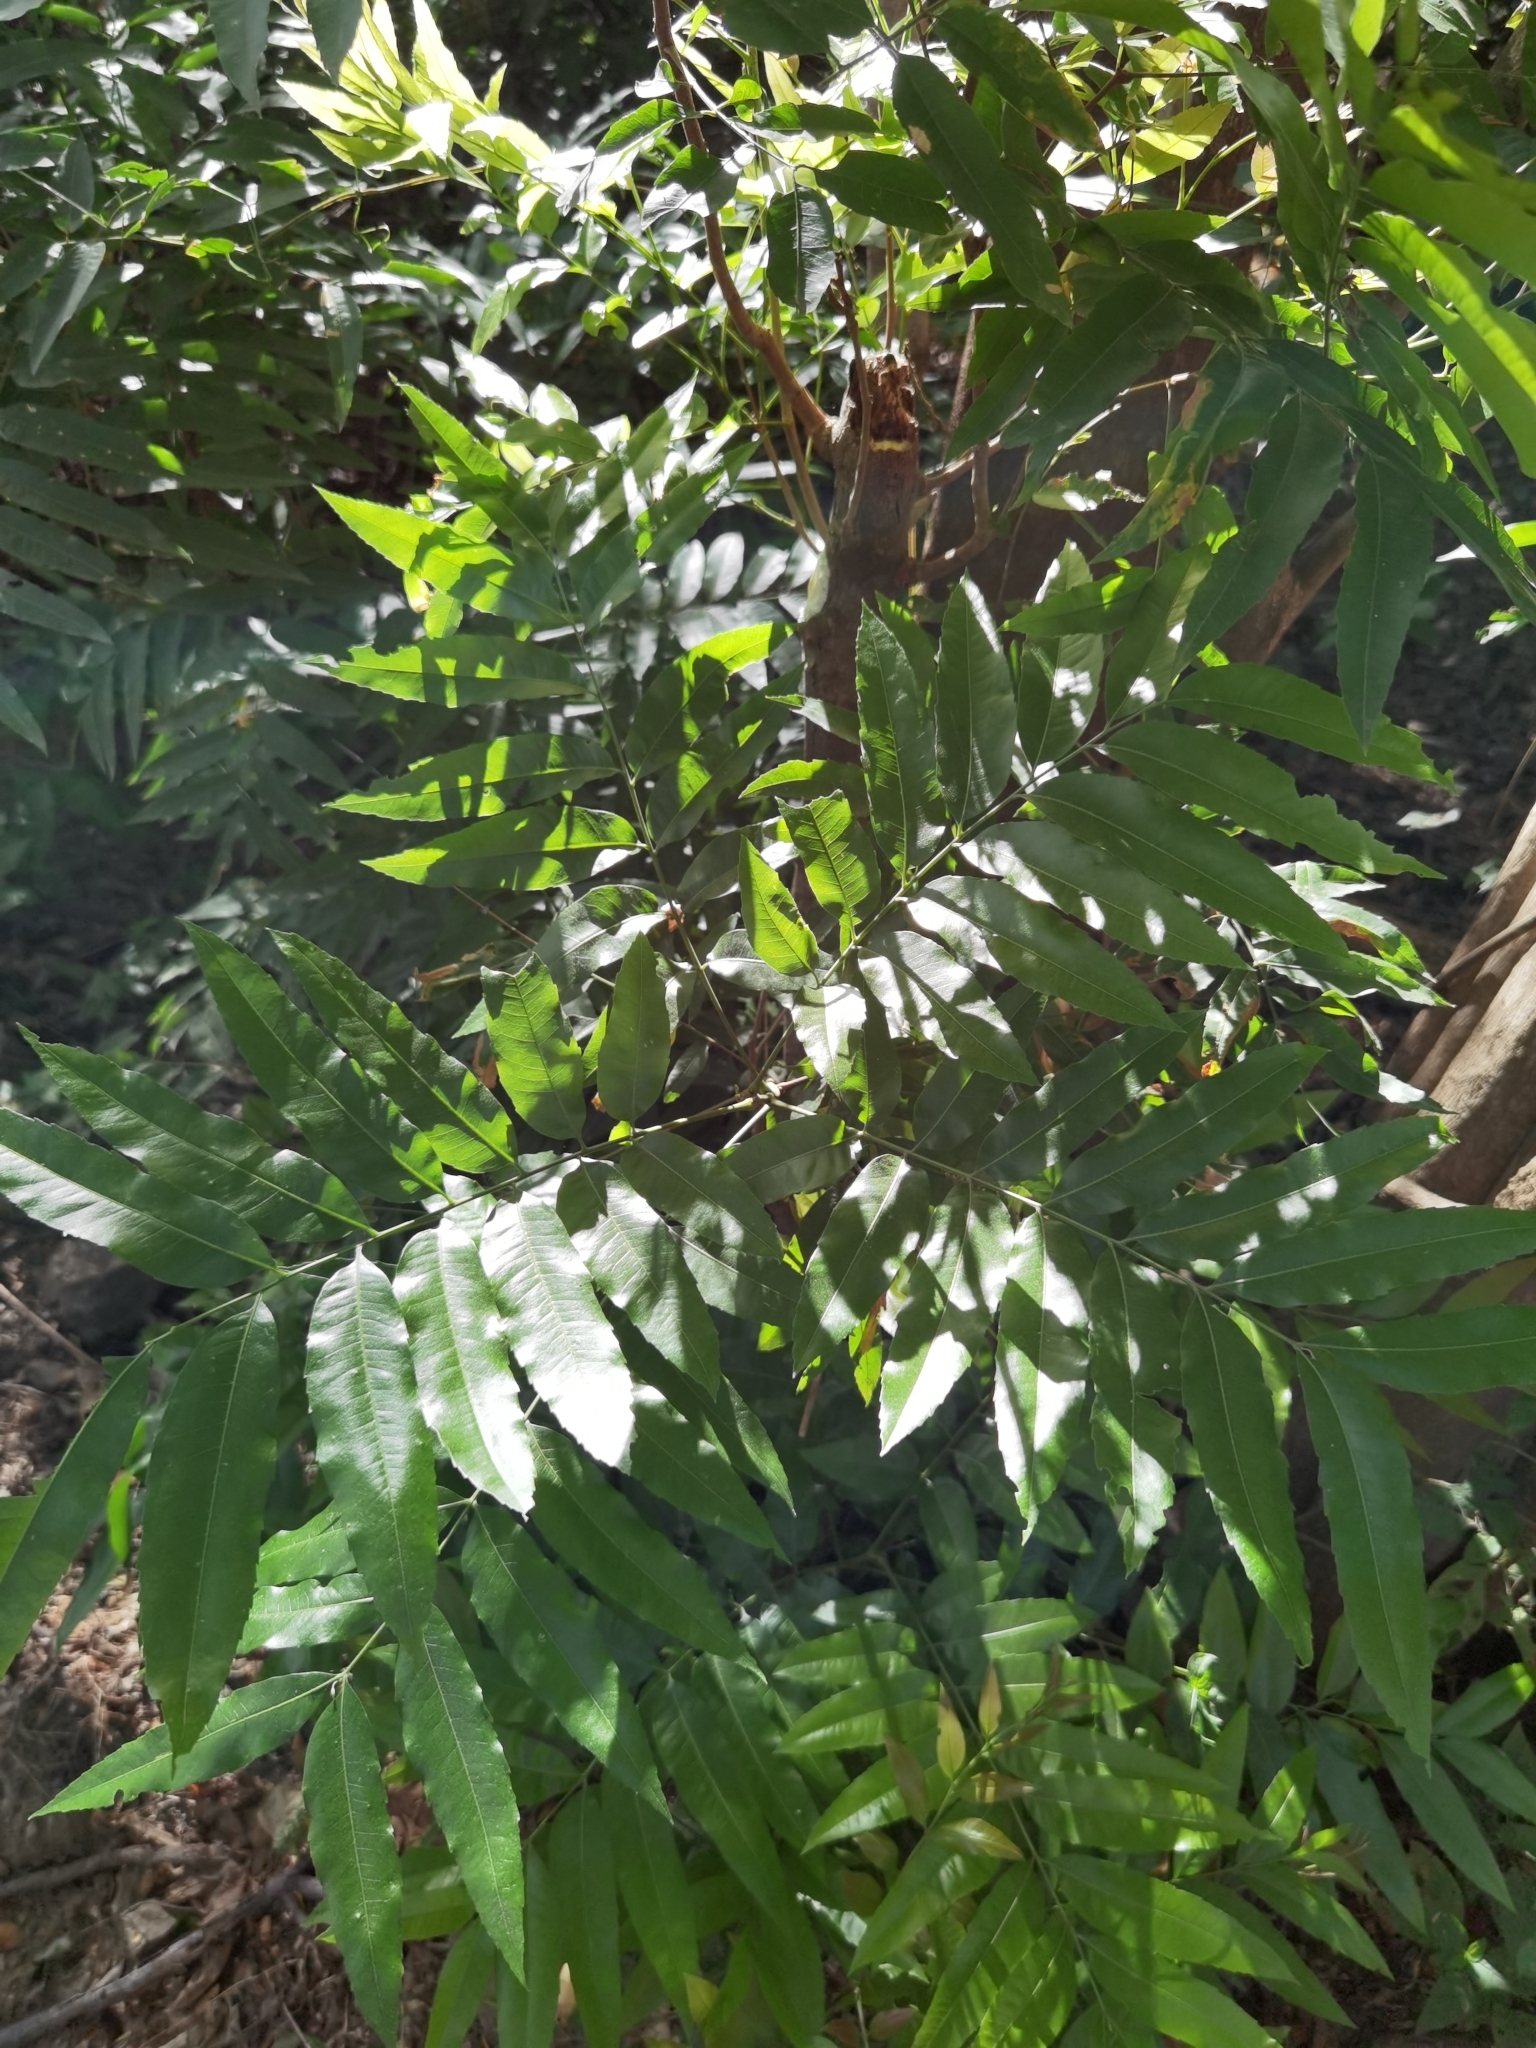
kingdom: Plantae
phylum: Tracheophyta
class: Magnoliopsida
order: Sapindales
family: Sapindaceae
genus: Thouinidium
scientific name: Thouinidium decandrum
